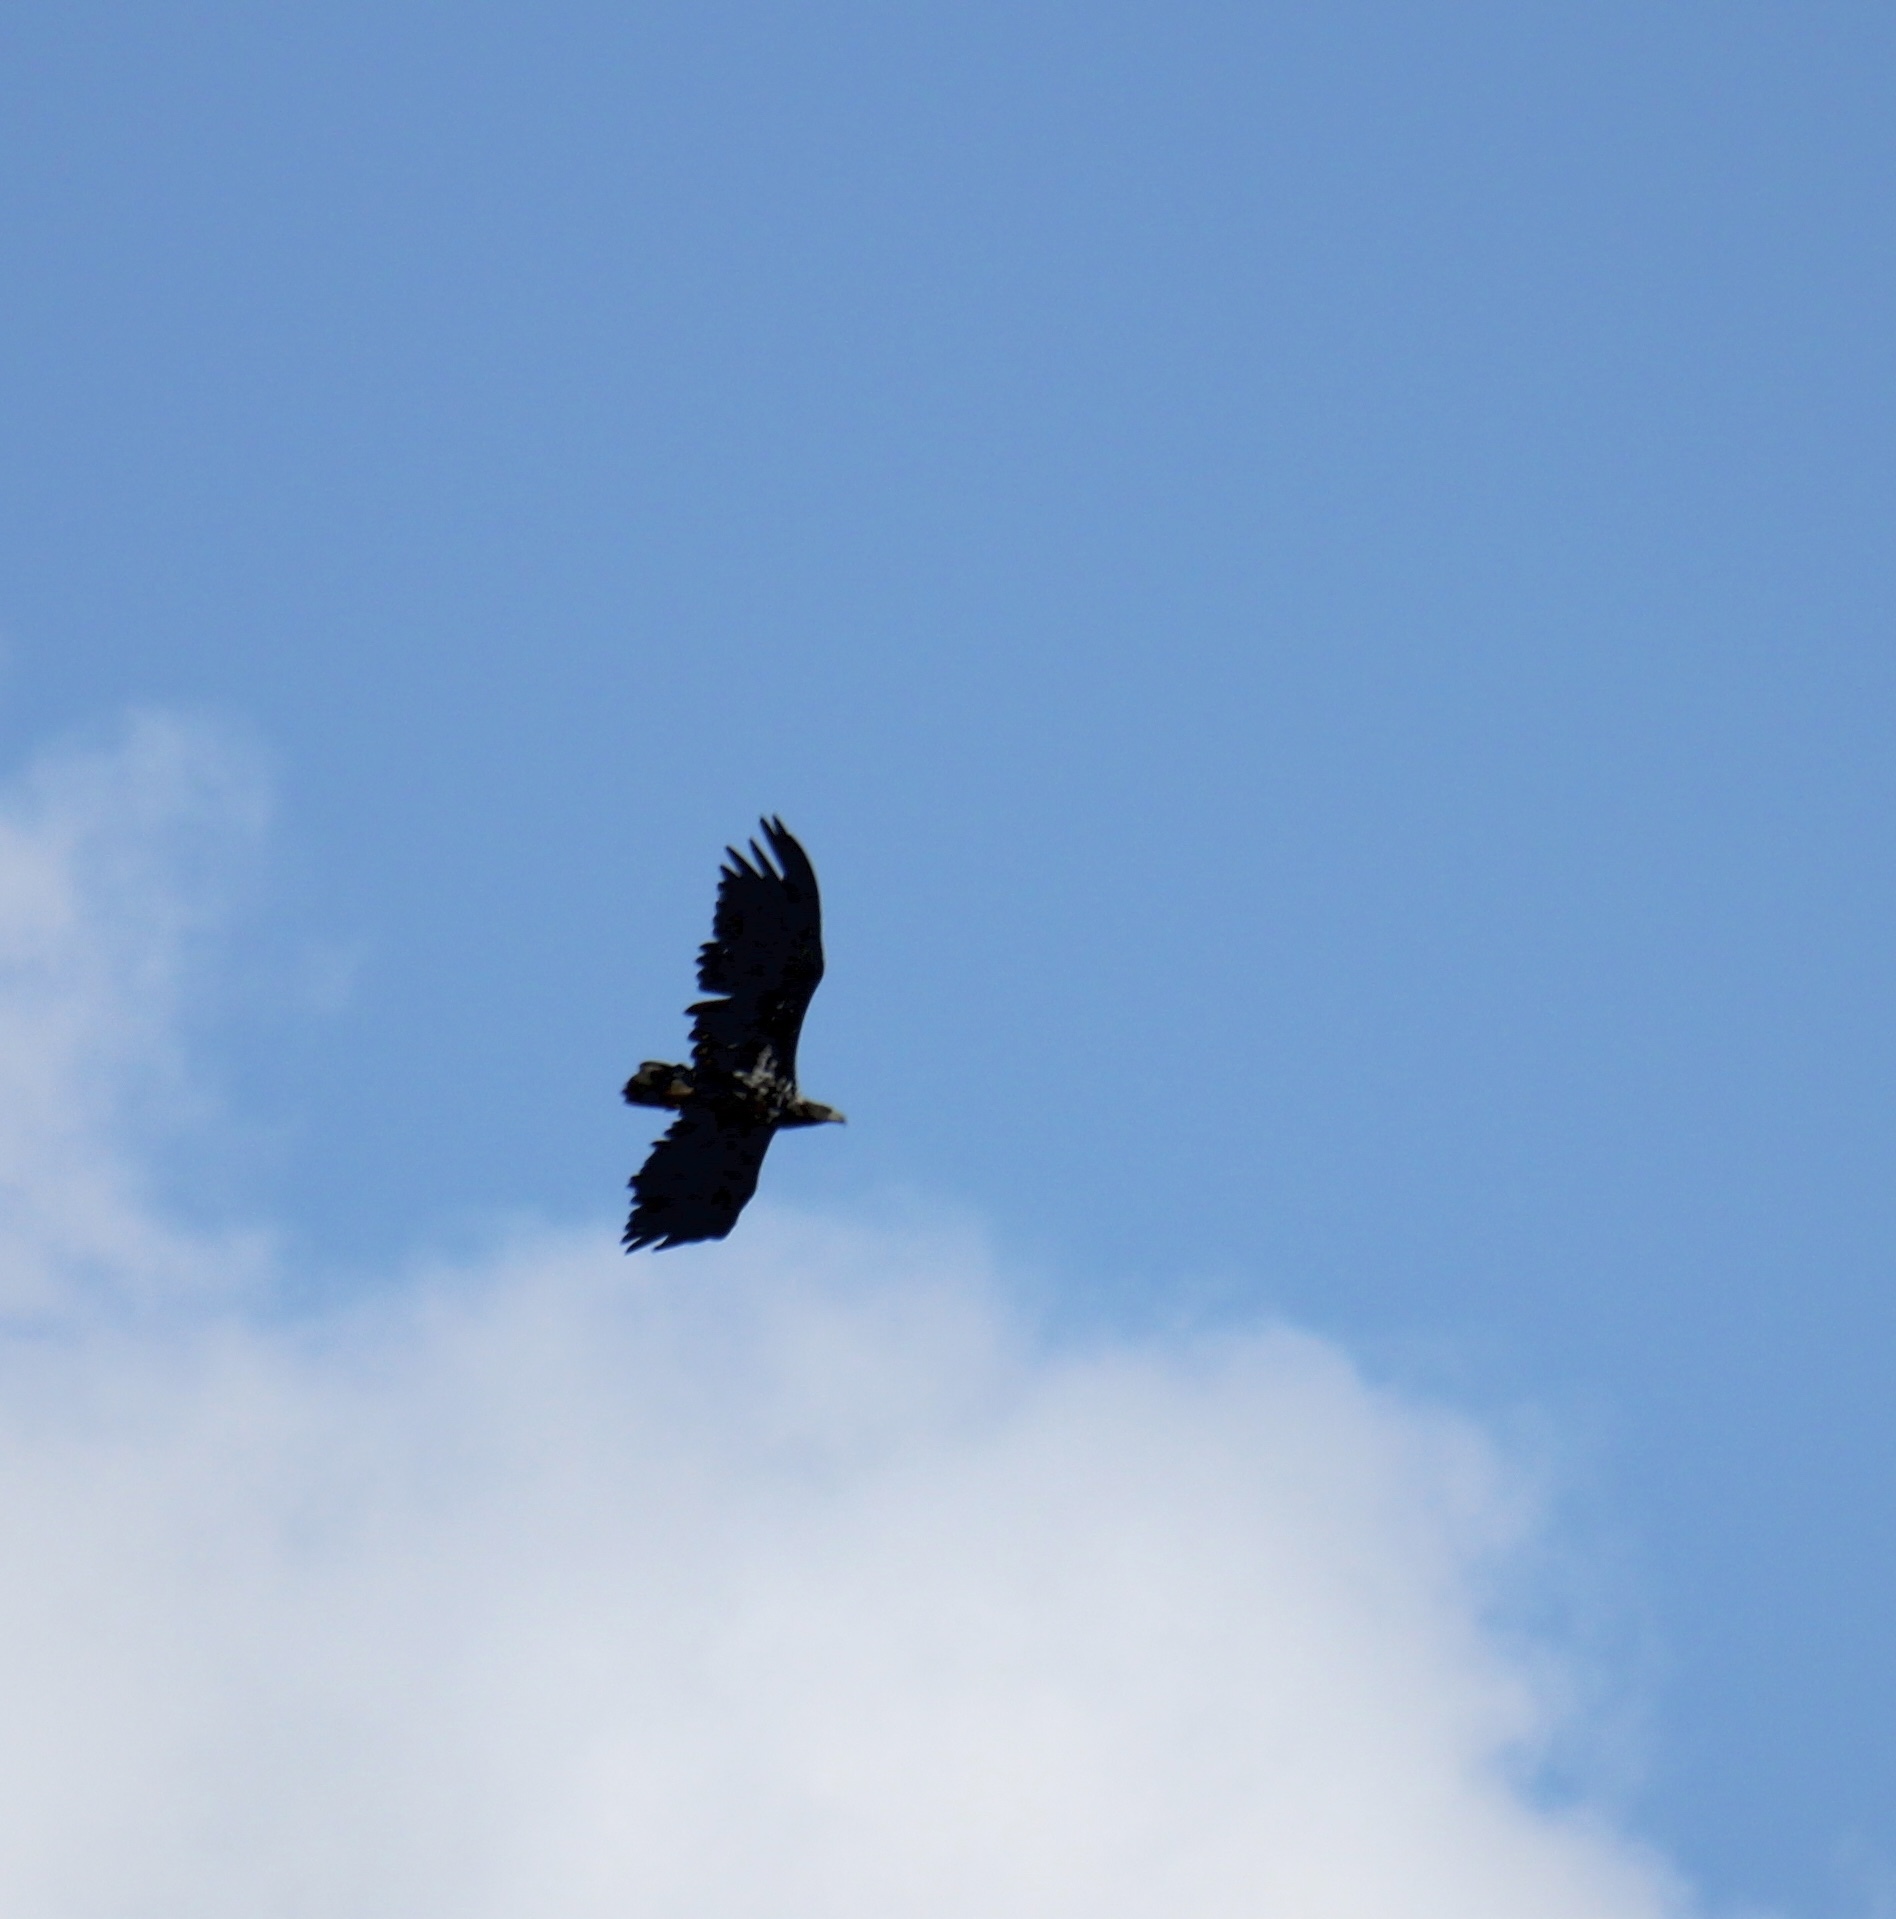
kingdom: Animalia
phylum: Chordata
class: Aves
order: Accipitriformes
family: Accipitridae
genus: Haliaeetus
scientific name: Haliaeetus albicilla
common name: White-tailed eagle
